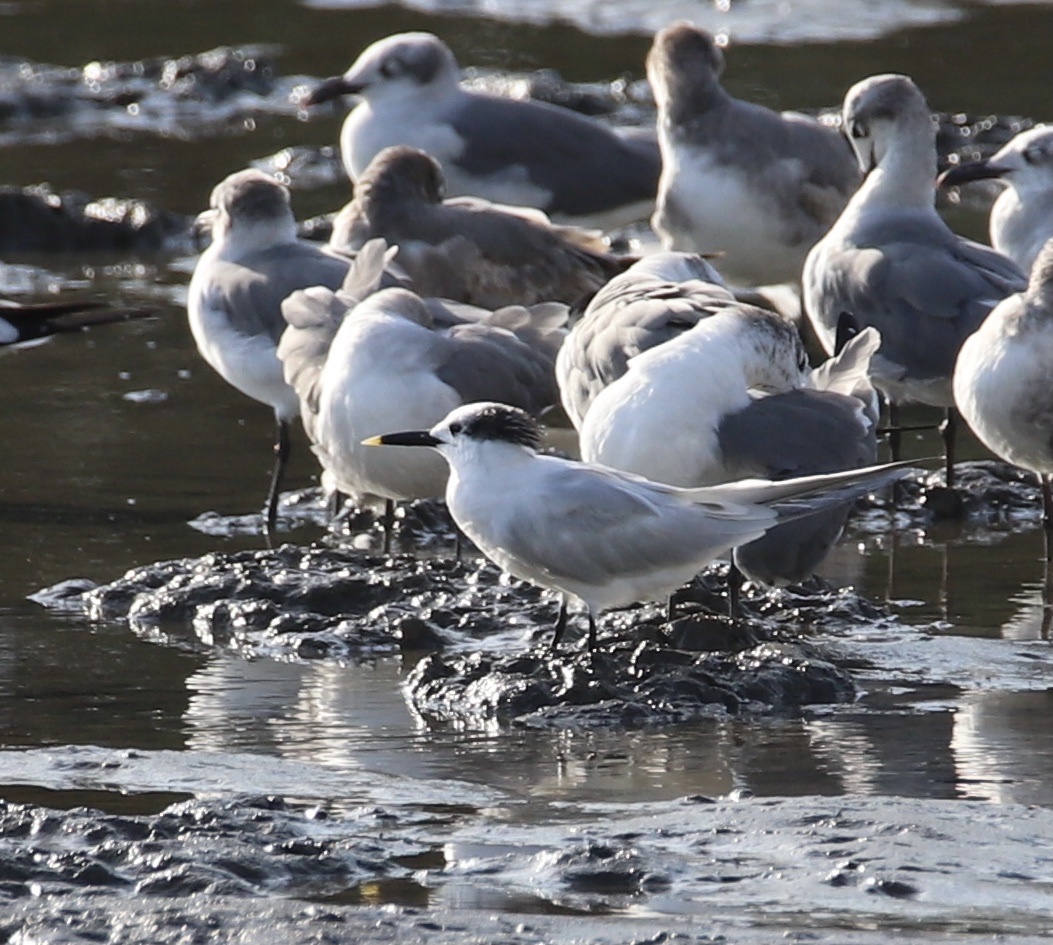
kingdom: Animalia
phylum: Chordata
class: Aves
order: Charadriiformes
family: Laridae
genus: Thalasseus
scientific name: Thalasseus sandvicensis
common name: Sandwich tern
